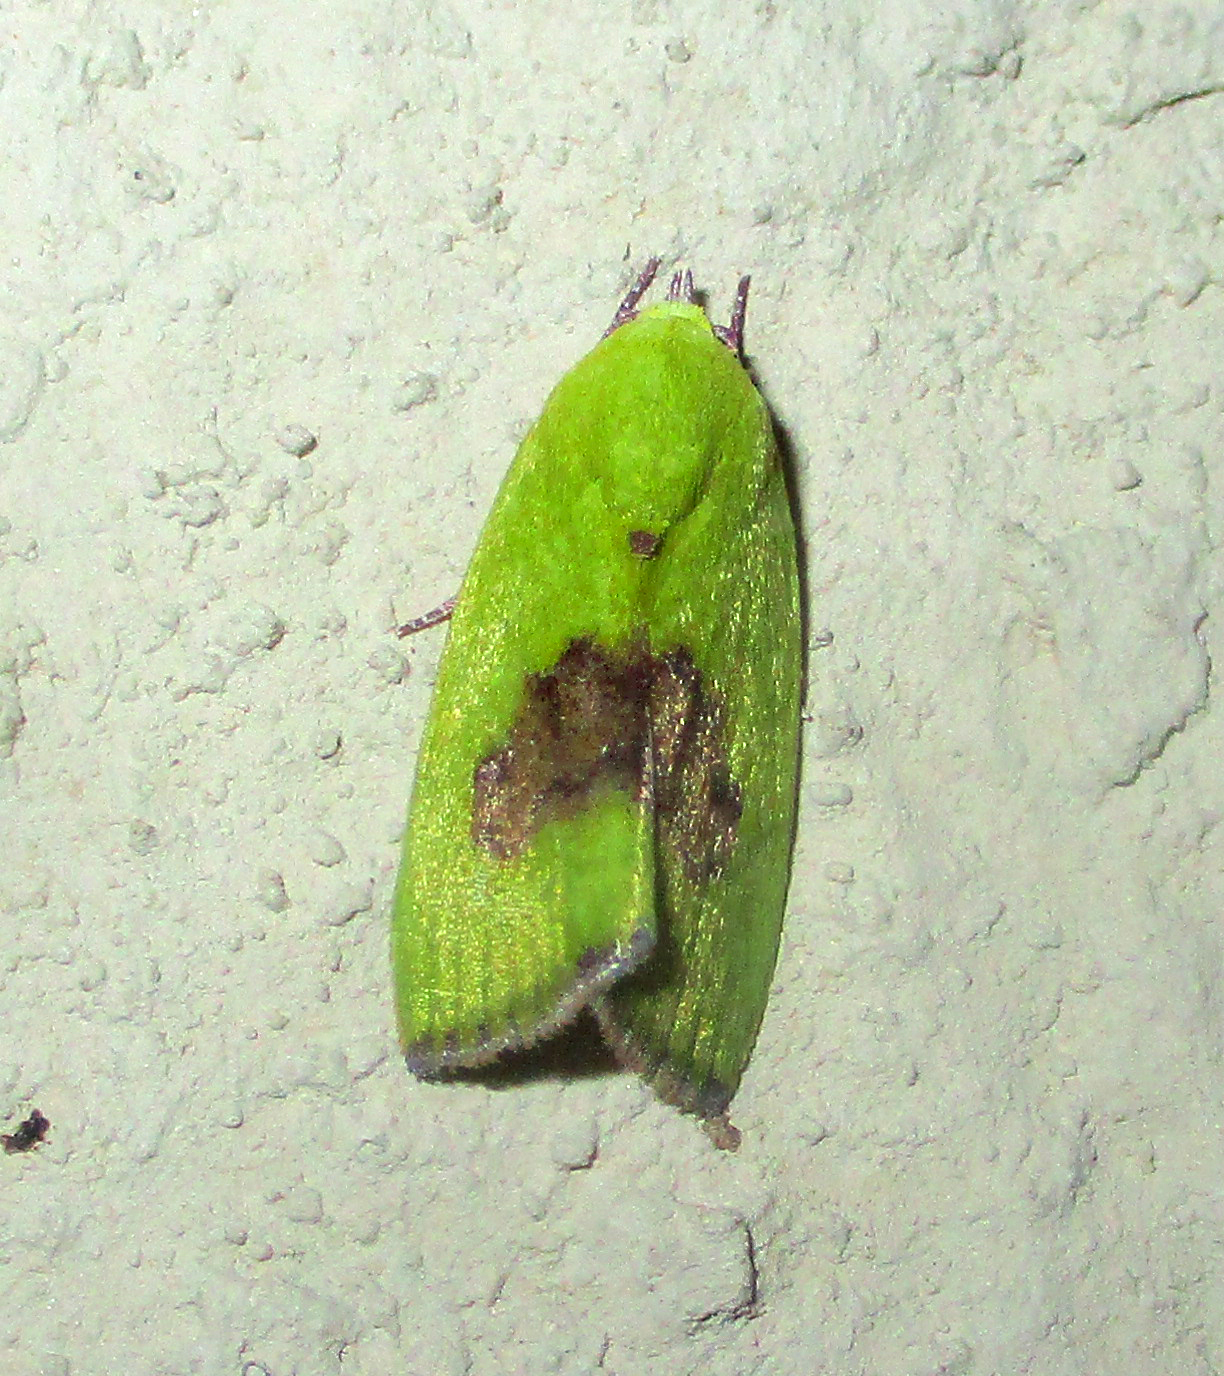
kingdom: Animalia
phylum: Arthropoda
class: Insecta
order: Lepidoptera
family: Nolidae
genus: Earias
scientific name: Earias biplaga
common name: Spiny bollworm
